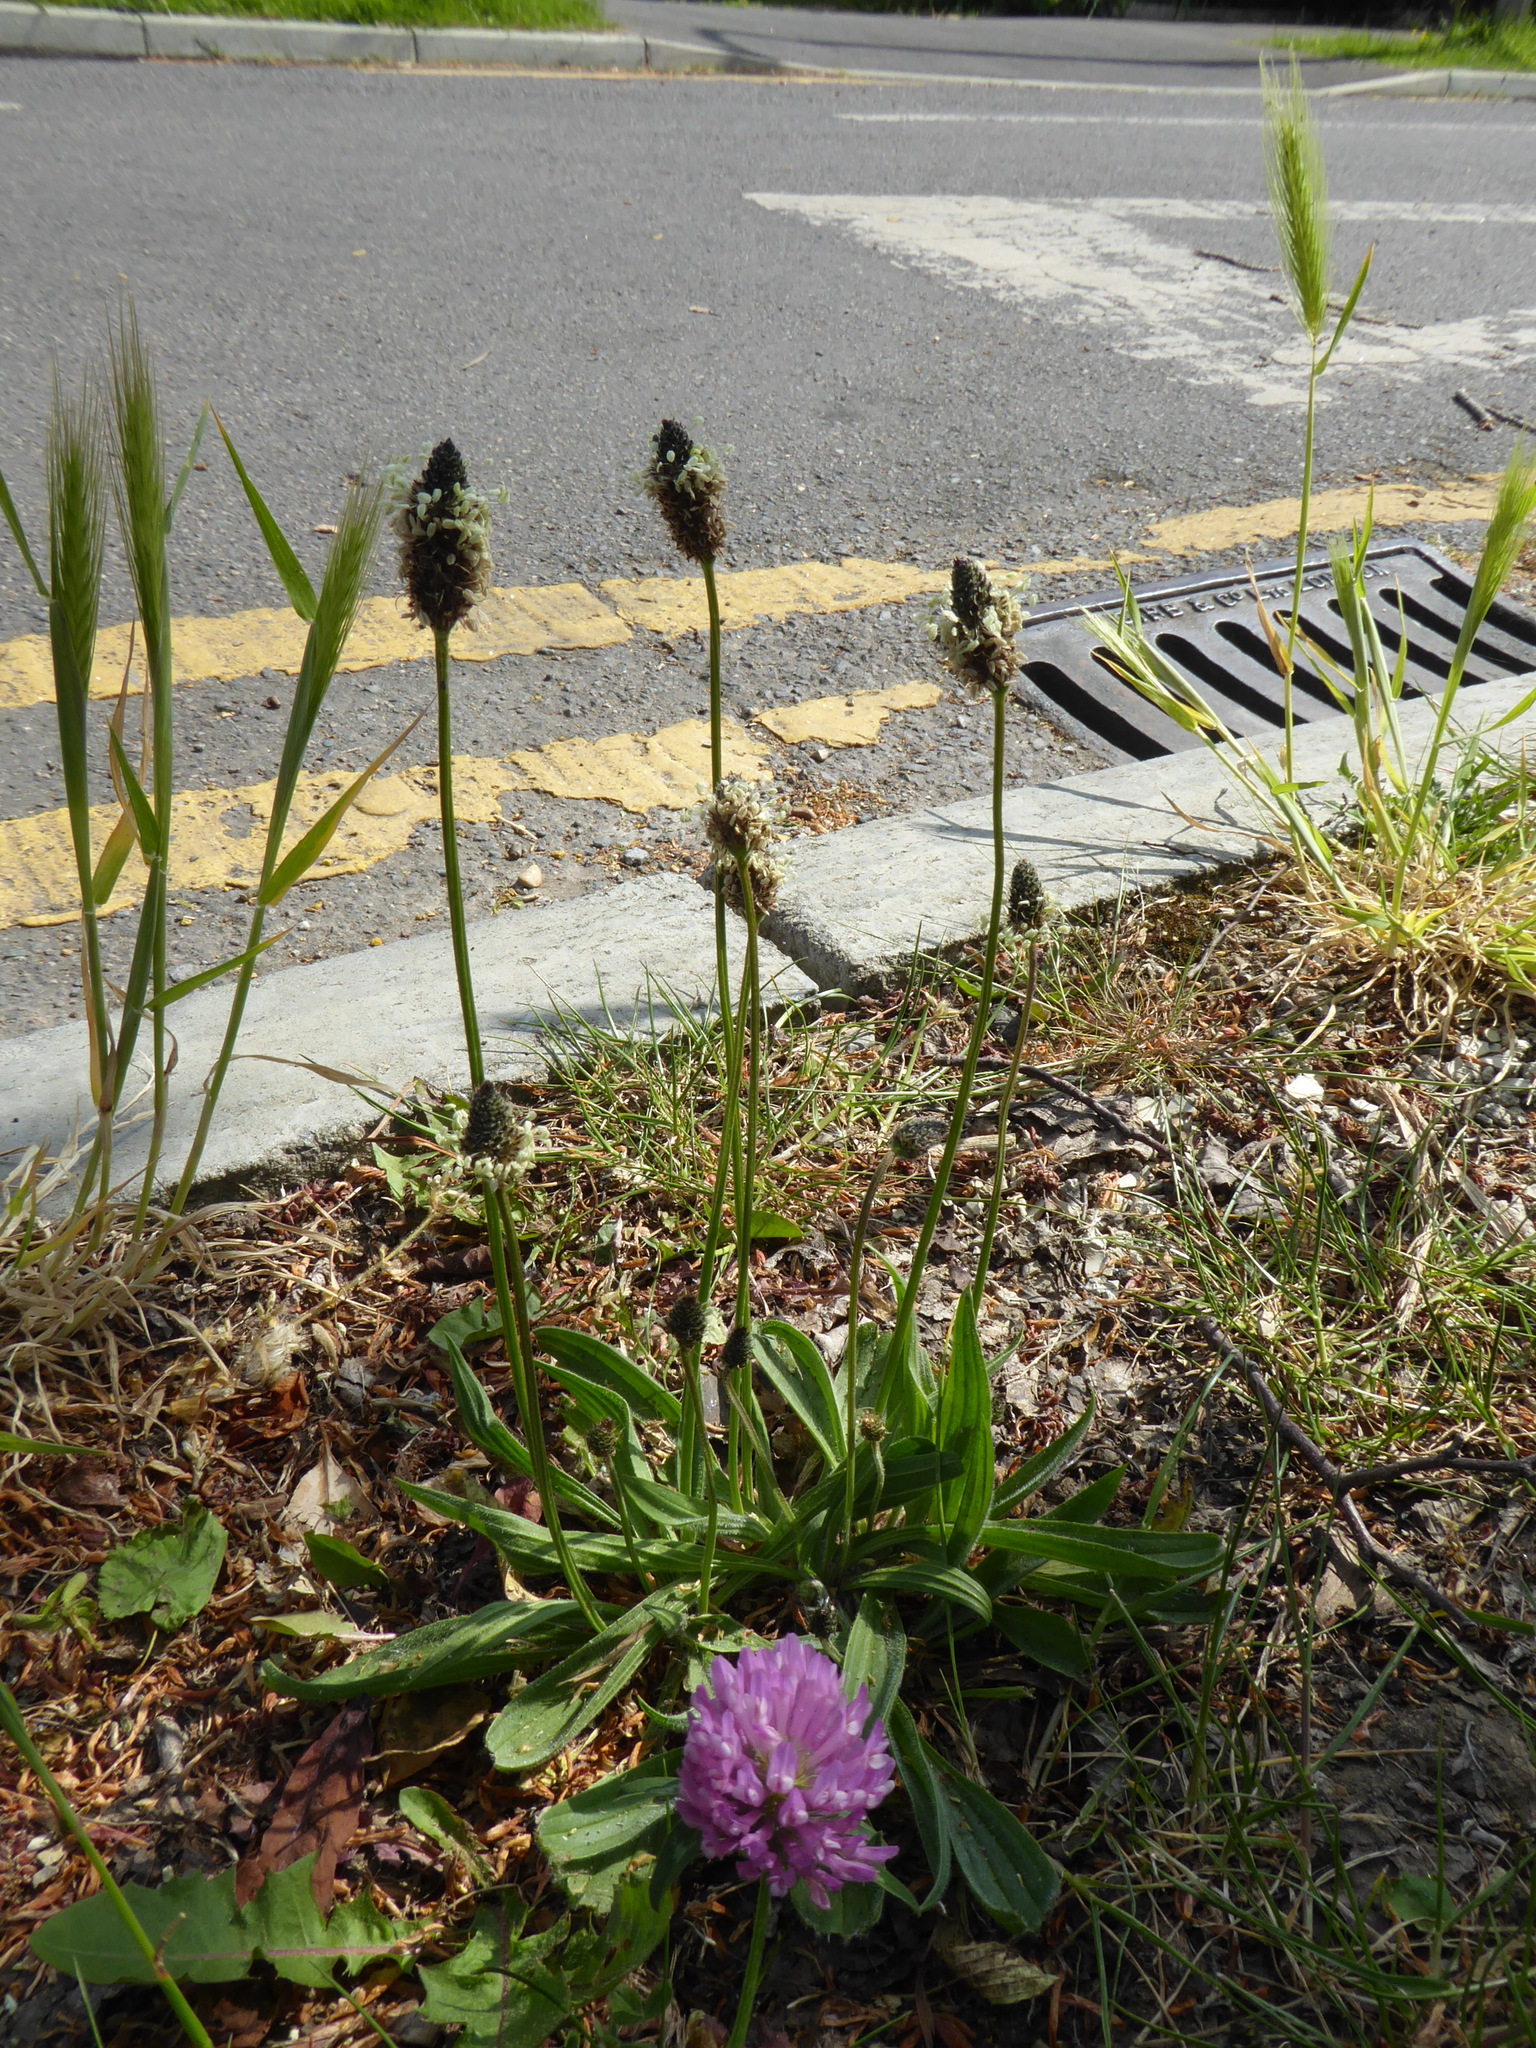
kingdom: Plantae
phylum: Tracheophyta
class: Magnoliopsida
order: Lamiales
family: Plantaginaceae
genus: Plantago
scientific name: Plantago lanceolata
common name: Ribwort plantain
